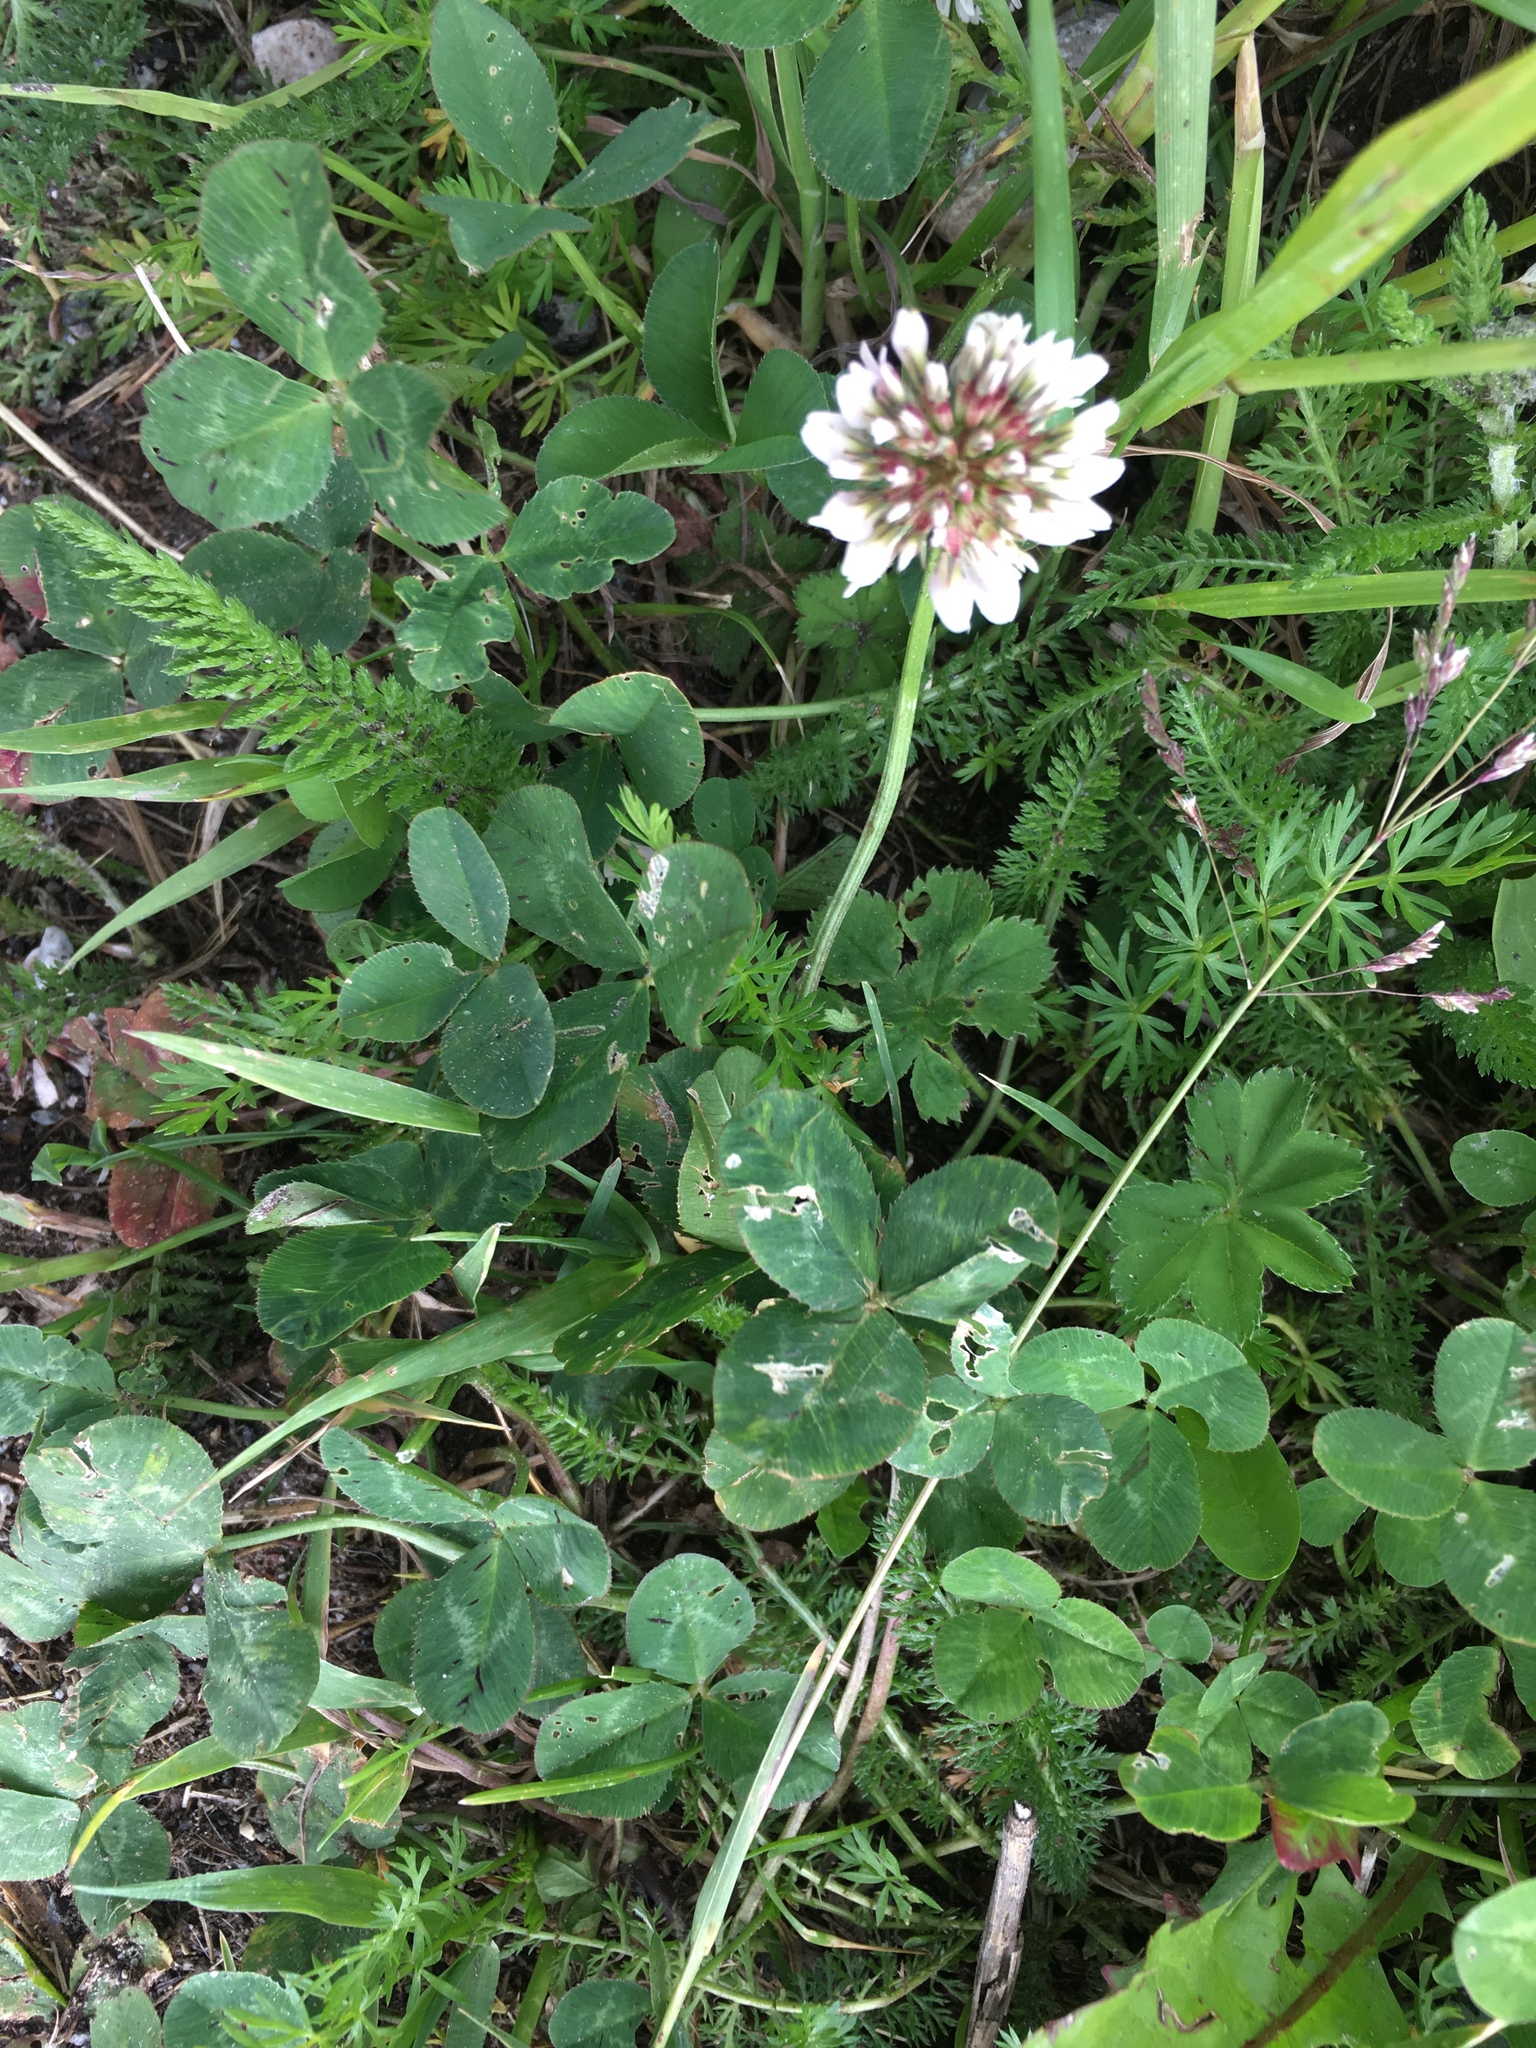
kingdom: Plantae
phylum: Tracheophyta
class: Magnoliopsida
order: Fabales
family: Fabaceae
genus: Trifolium
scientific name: Trifolium repens
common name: White clover
